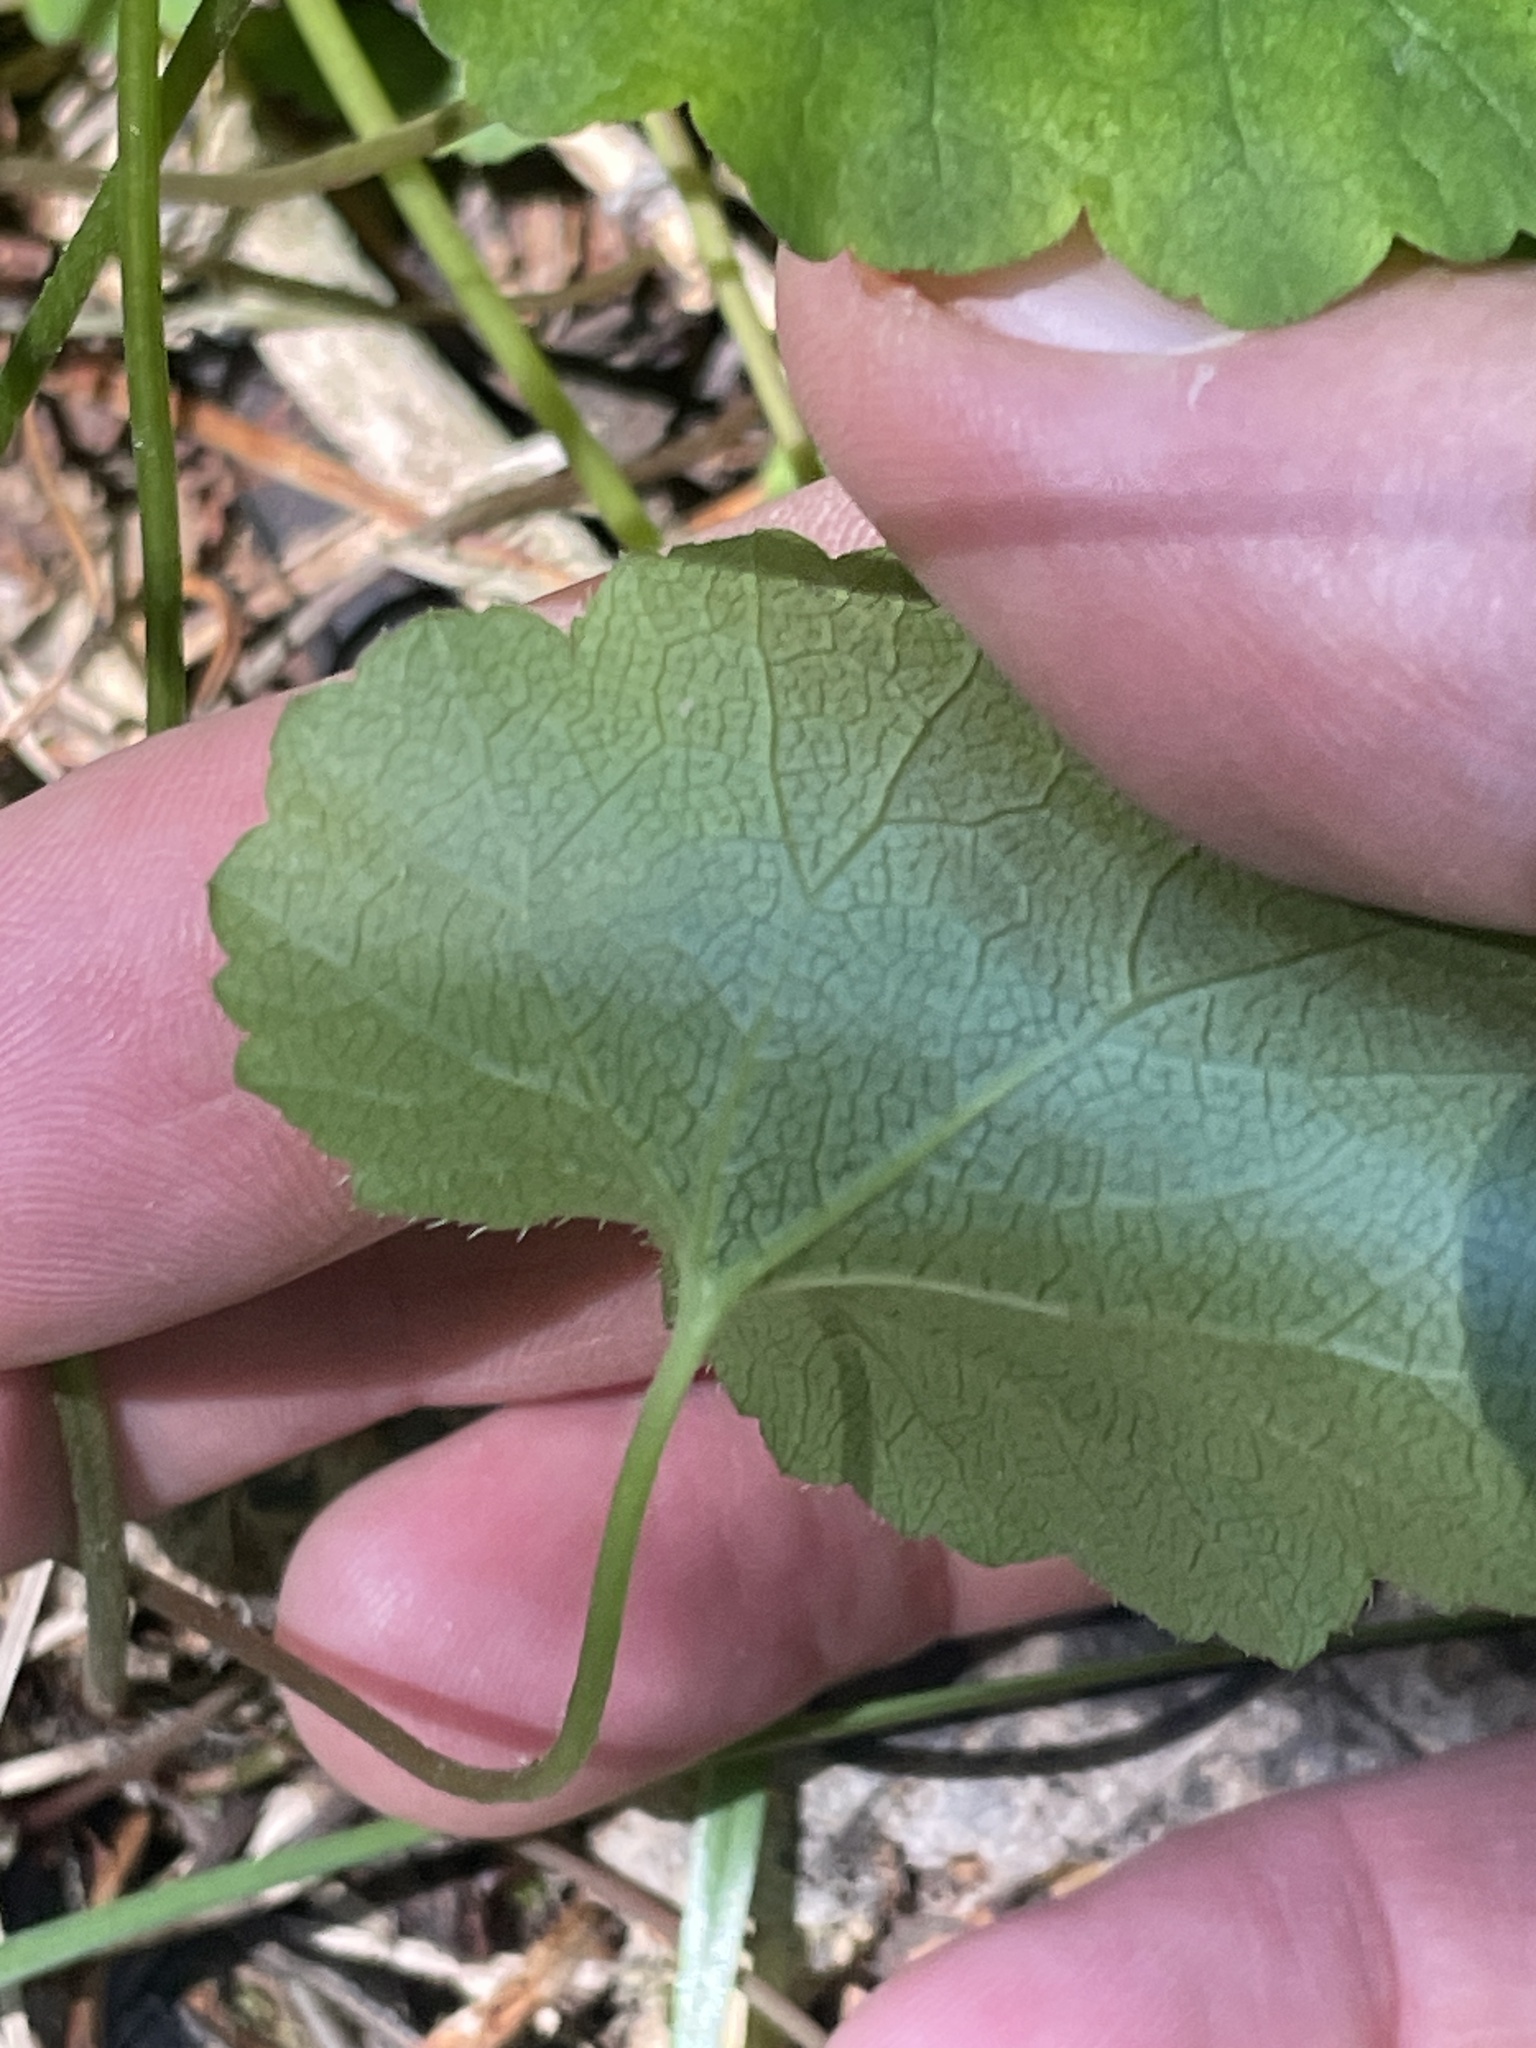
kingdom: Plantae
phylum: Tracheophyta
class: Magnoliopsida
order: Saxifragales
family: Saxifragaceae
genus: Ozomelis
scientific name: Ozomelis stauropetala
